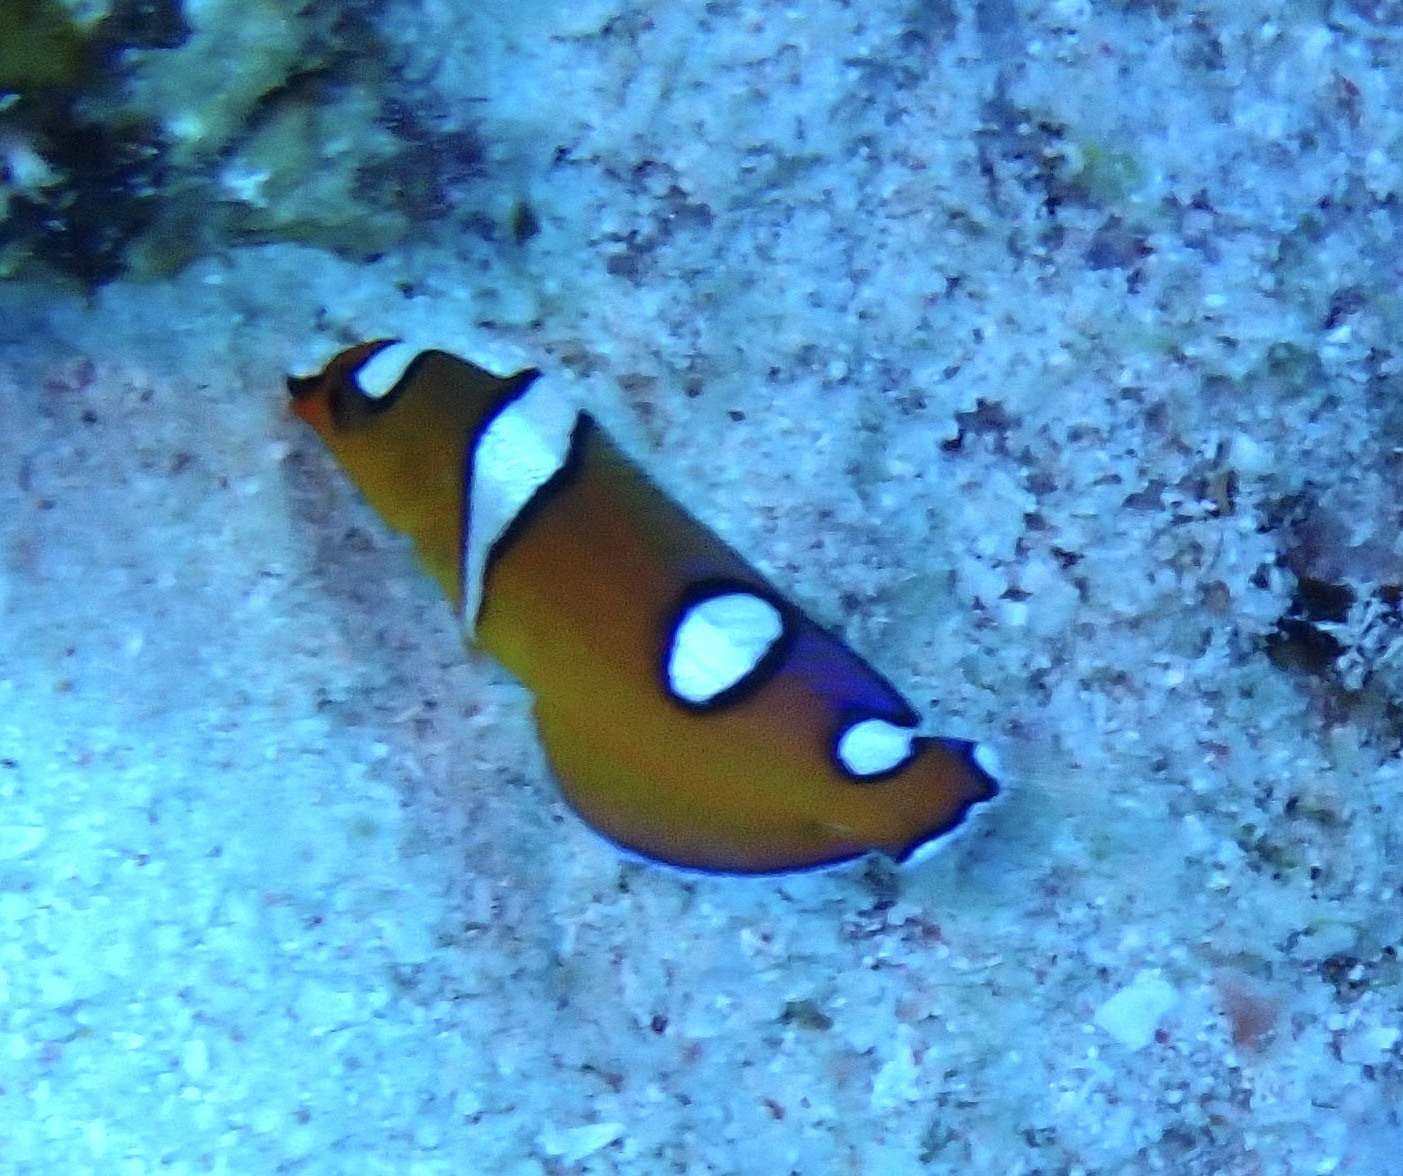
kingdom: Animalia
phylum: Chordata
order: Perciformes
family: Labridae
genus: Coris
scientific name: Coris cuvieri
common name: African coris
